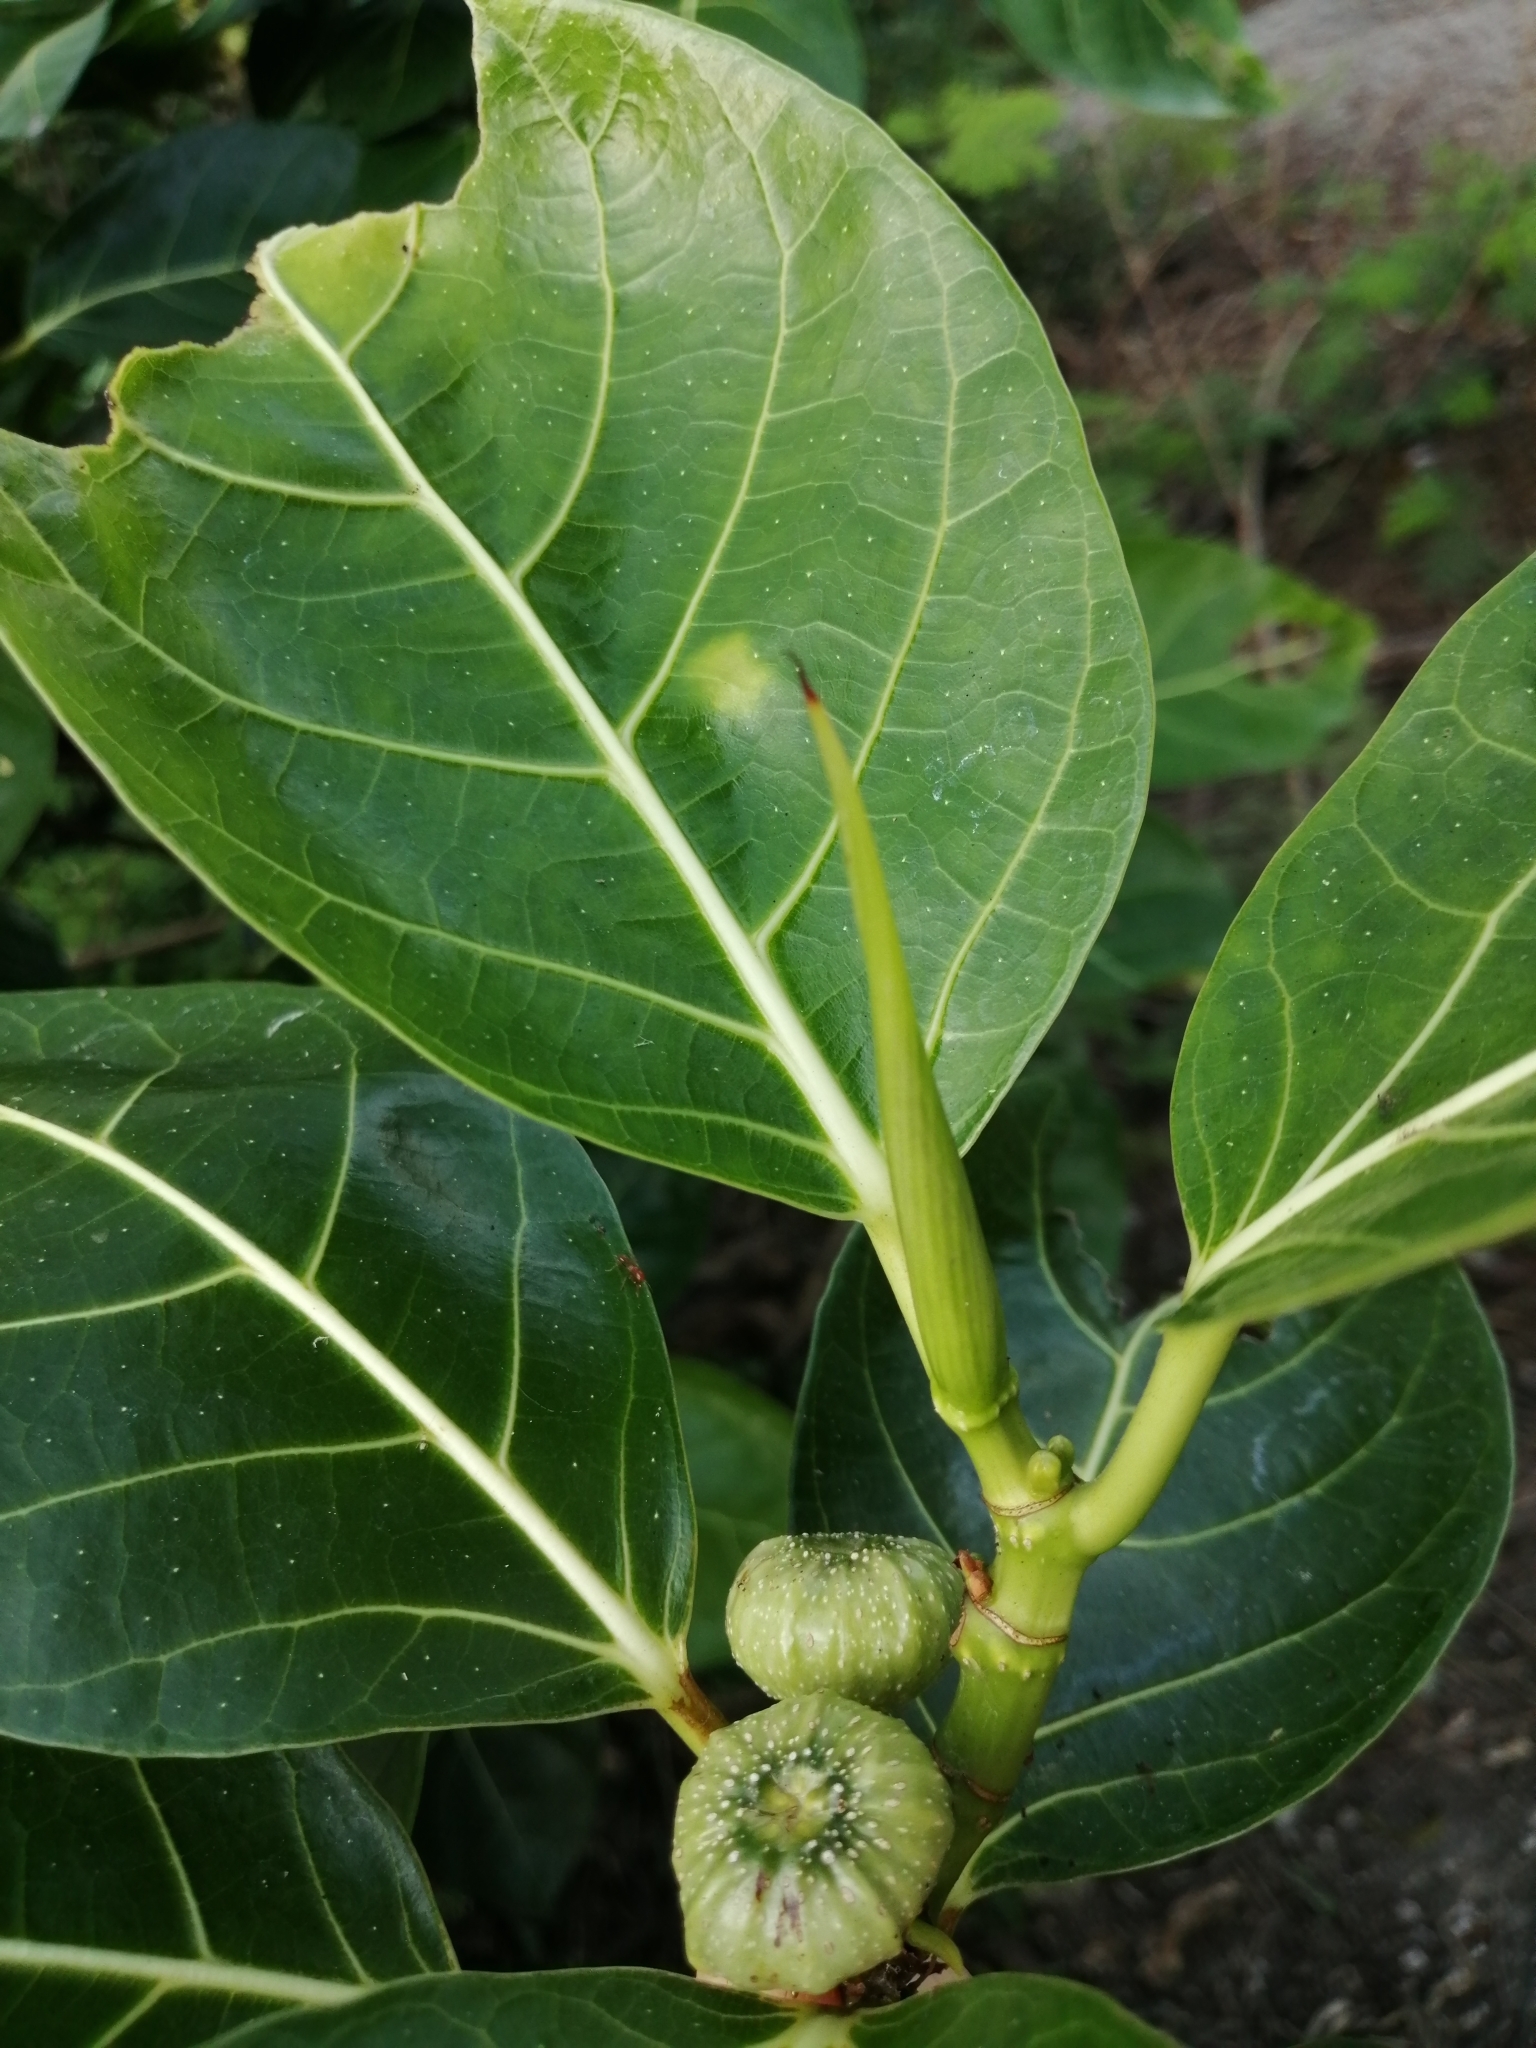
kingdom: Plantae
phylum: Tracheophyta
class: Magnoliopsida
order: Rosales
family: Moraceae
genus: Ficus
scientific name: Ficus septica
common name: Septic fig
